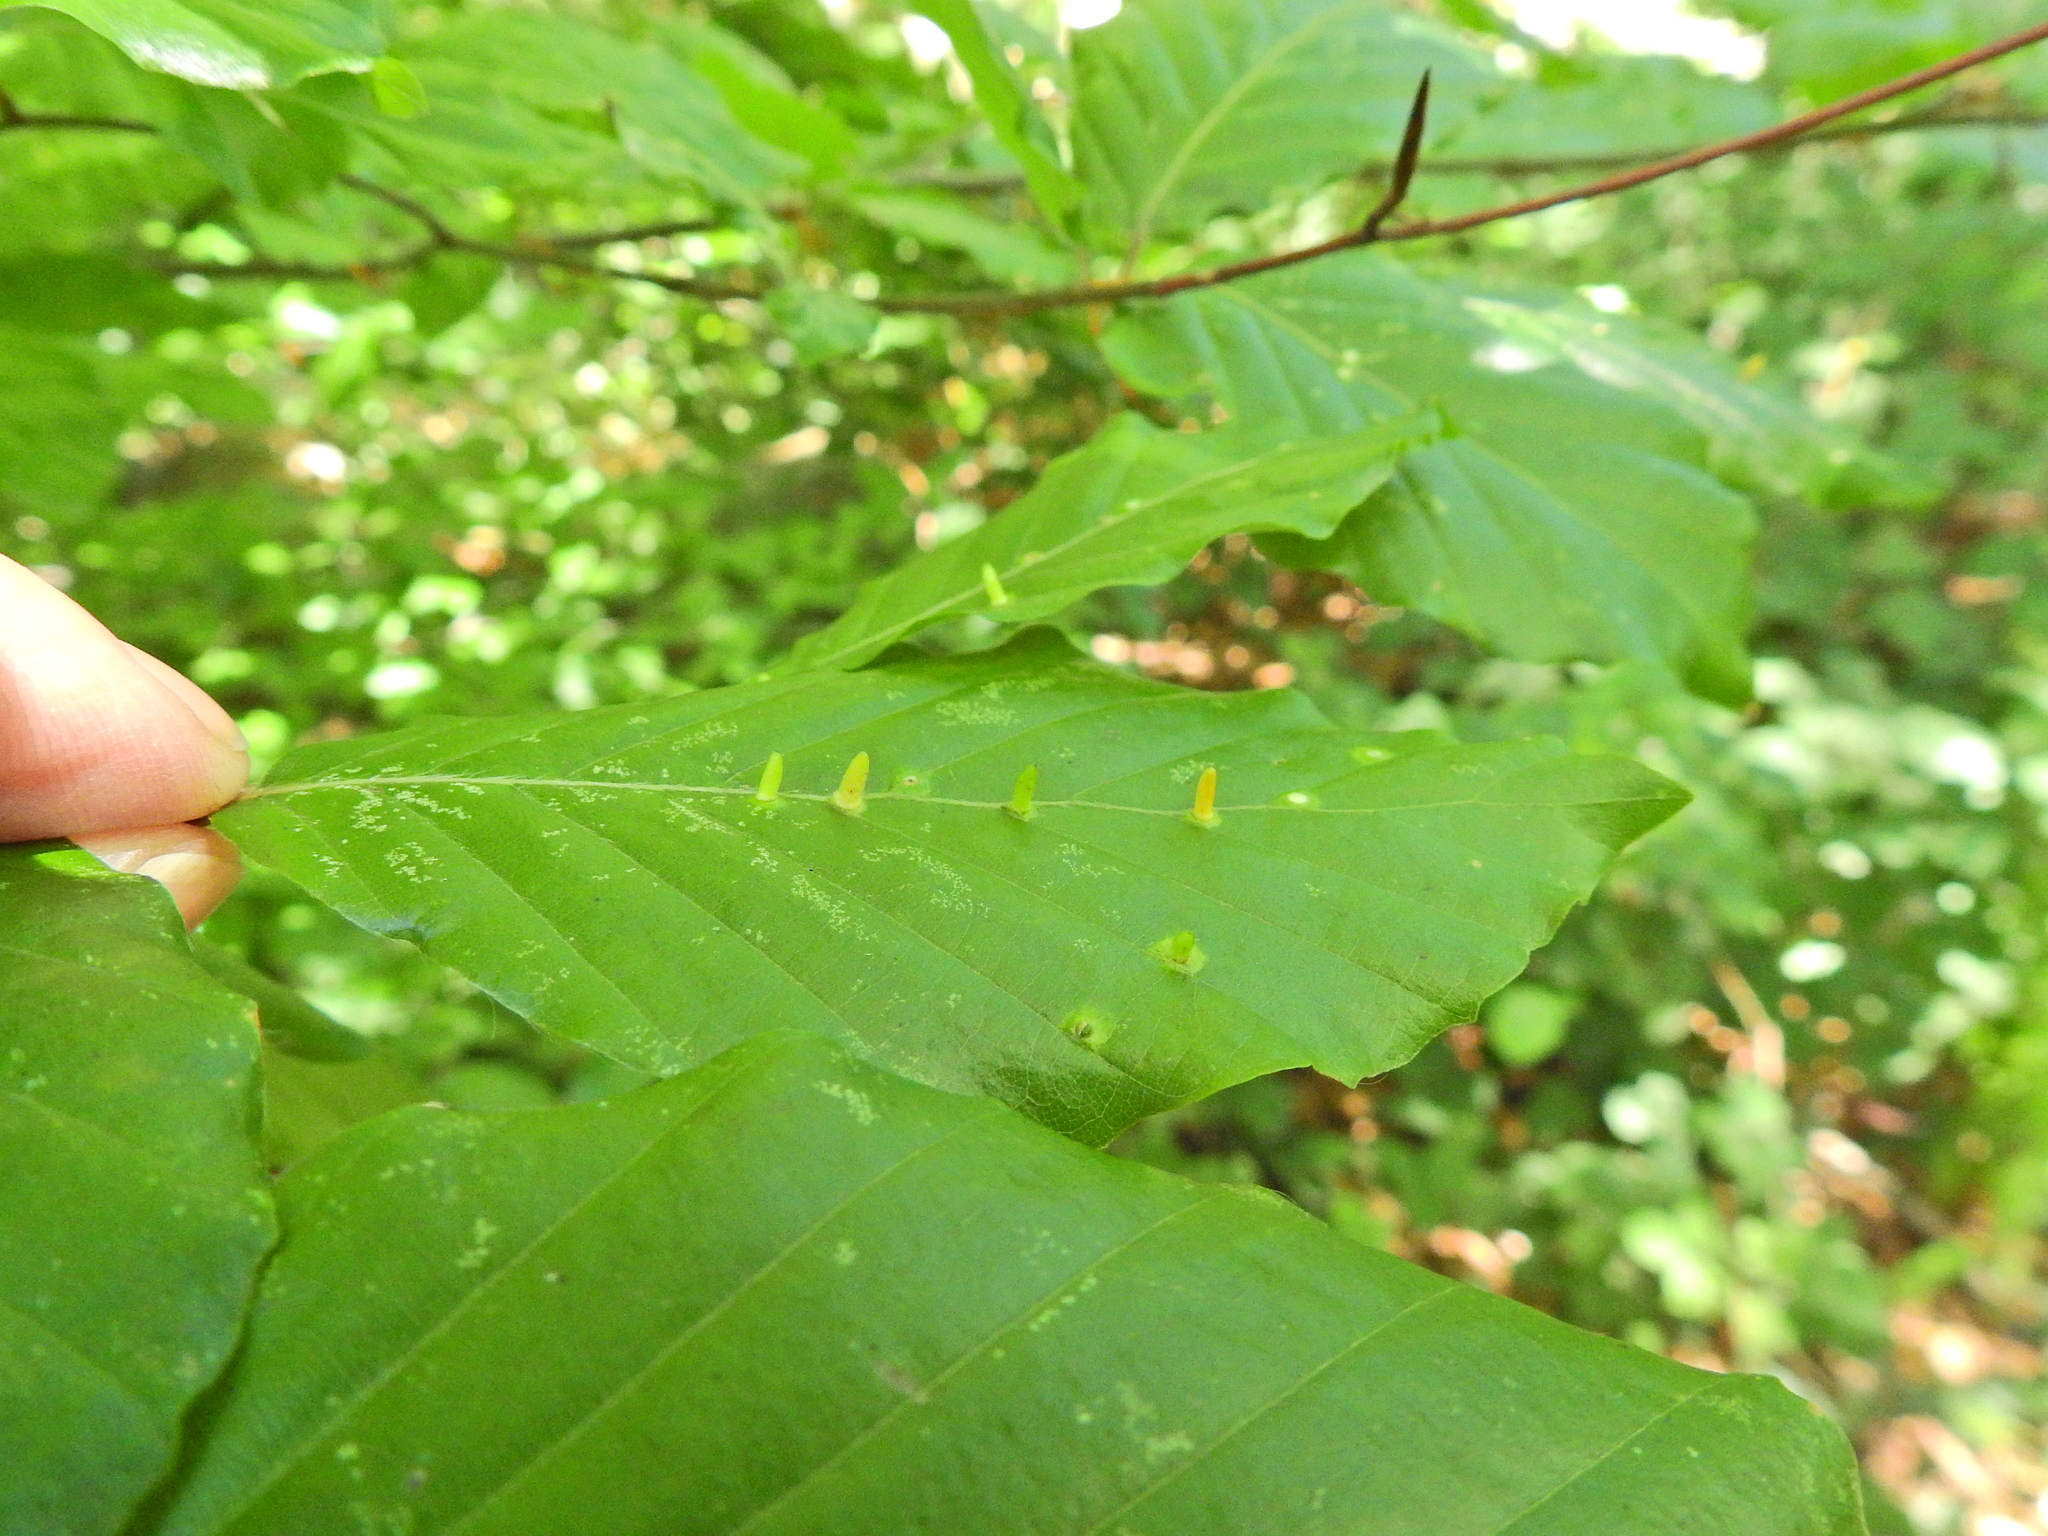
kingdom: Animalia
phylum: Arthropoda
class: Insecta
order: Diptera
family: Cecidomyiidae
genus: Hartigiola
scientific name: Hartigiola annulipes
